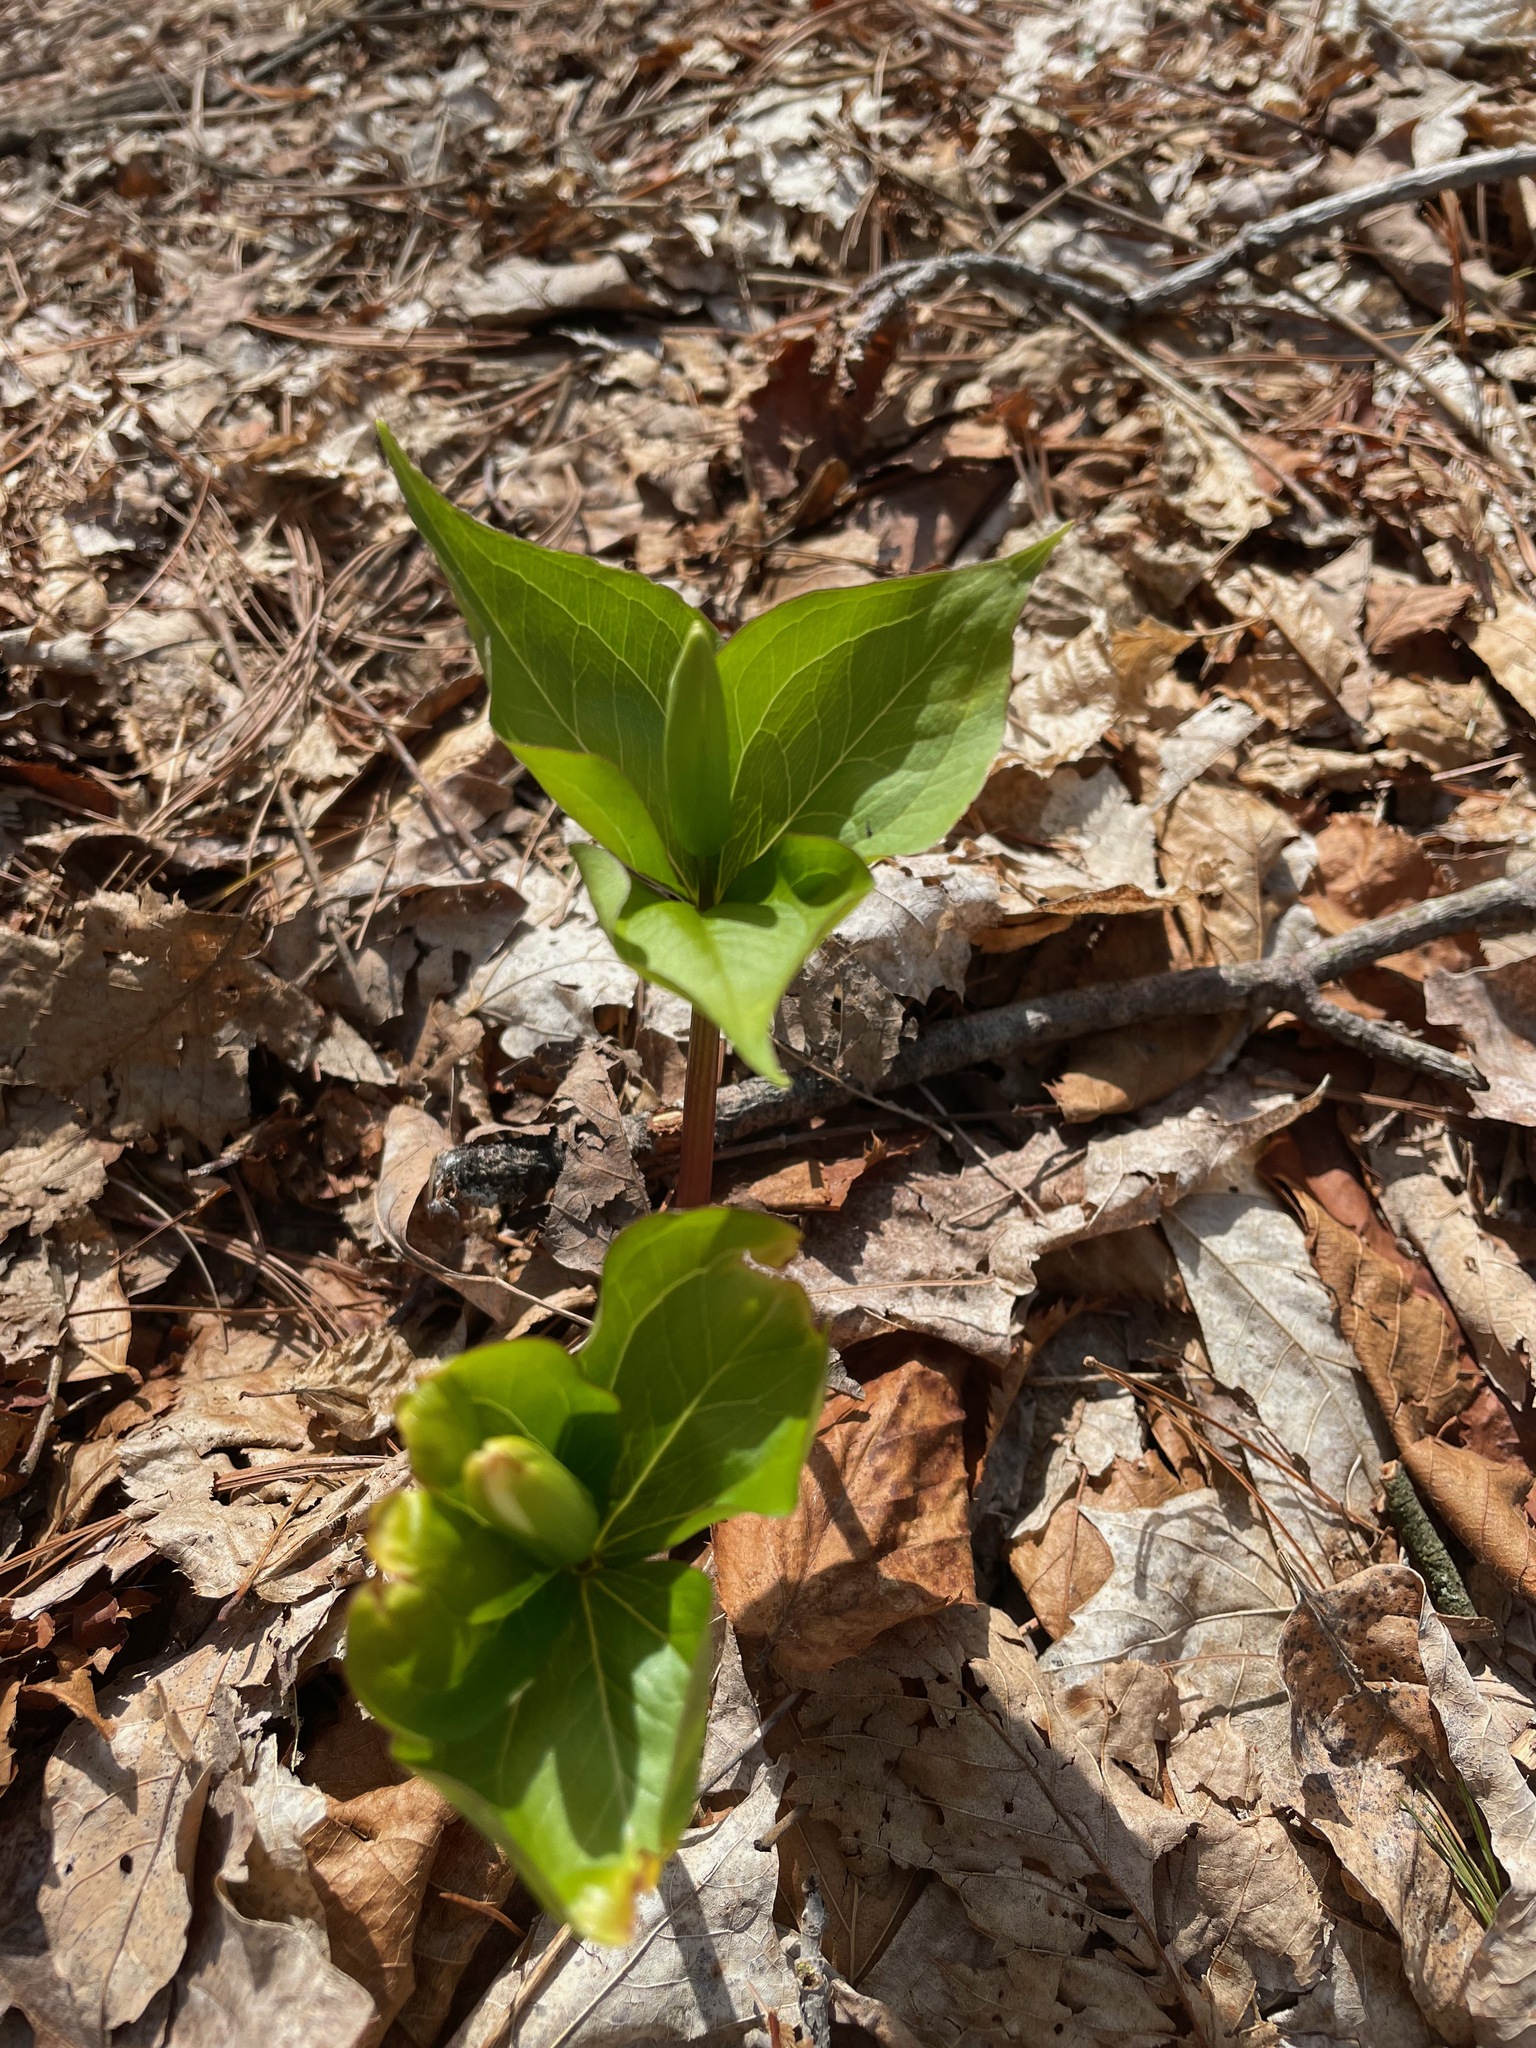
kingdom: Plantae
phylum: Tracheophyta
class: Liliopsida
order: Liliales
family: Melanthiaceae
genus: Trillium
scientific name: Trillium grandiflorum
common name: Great white trillium
